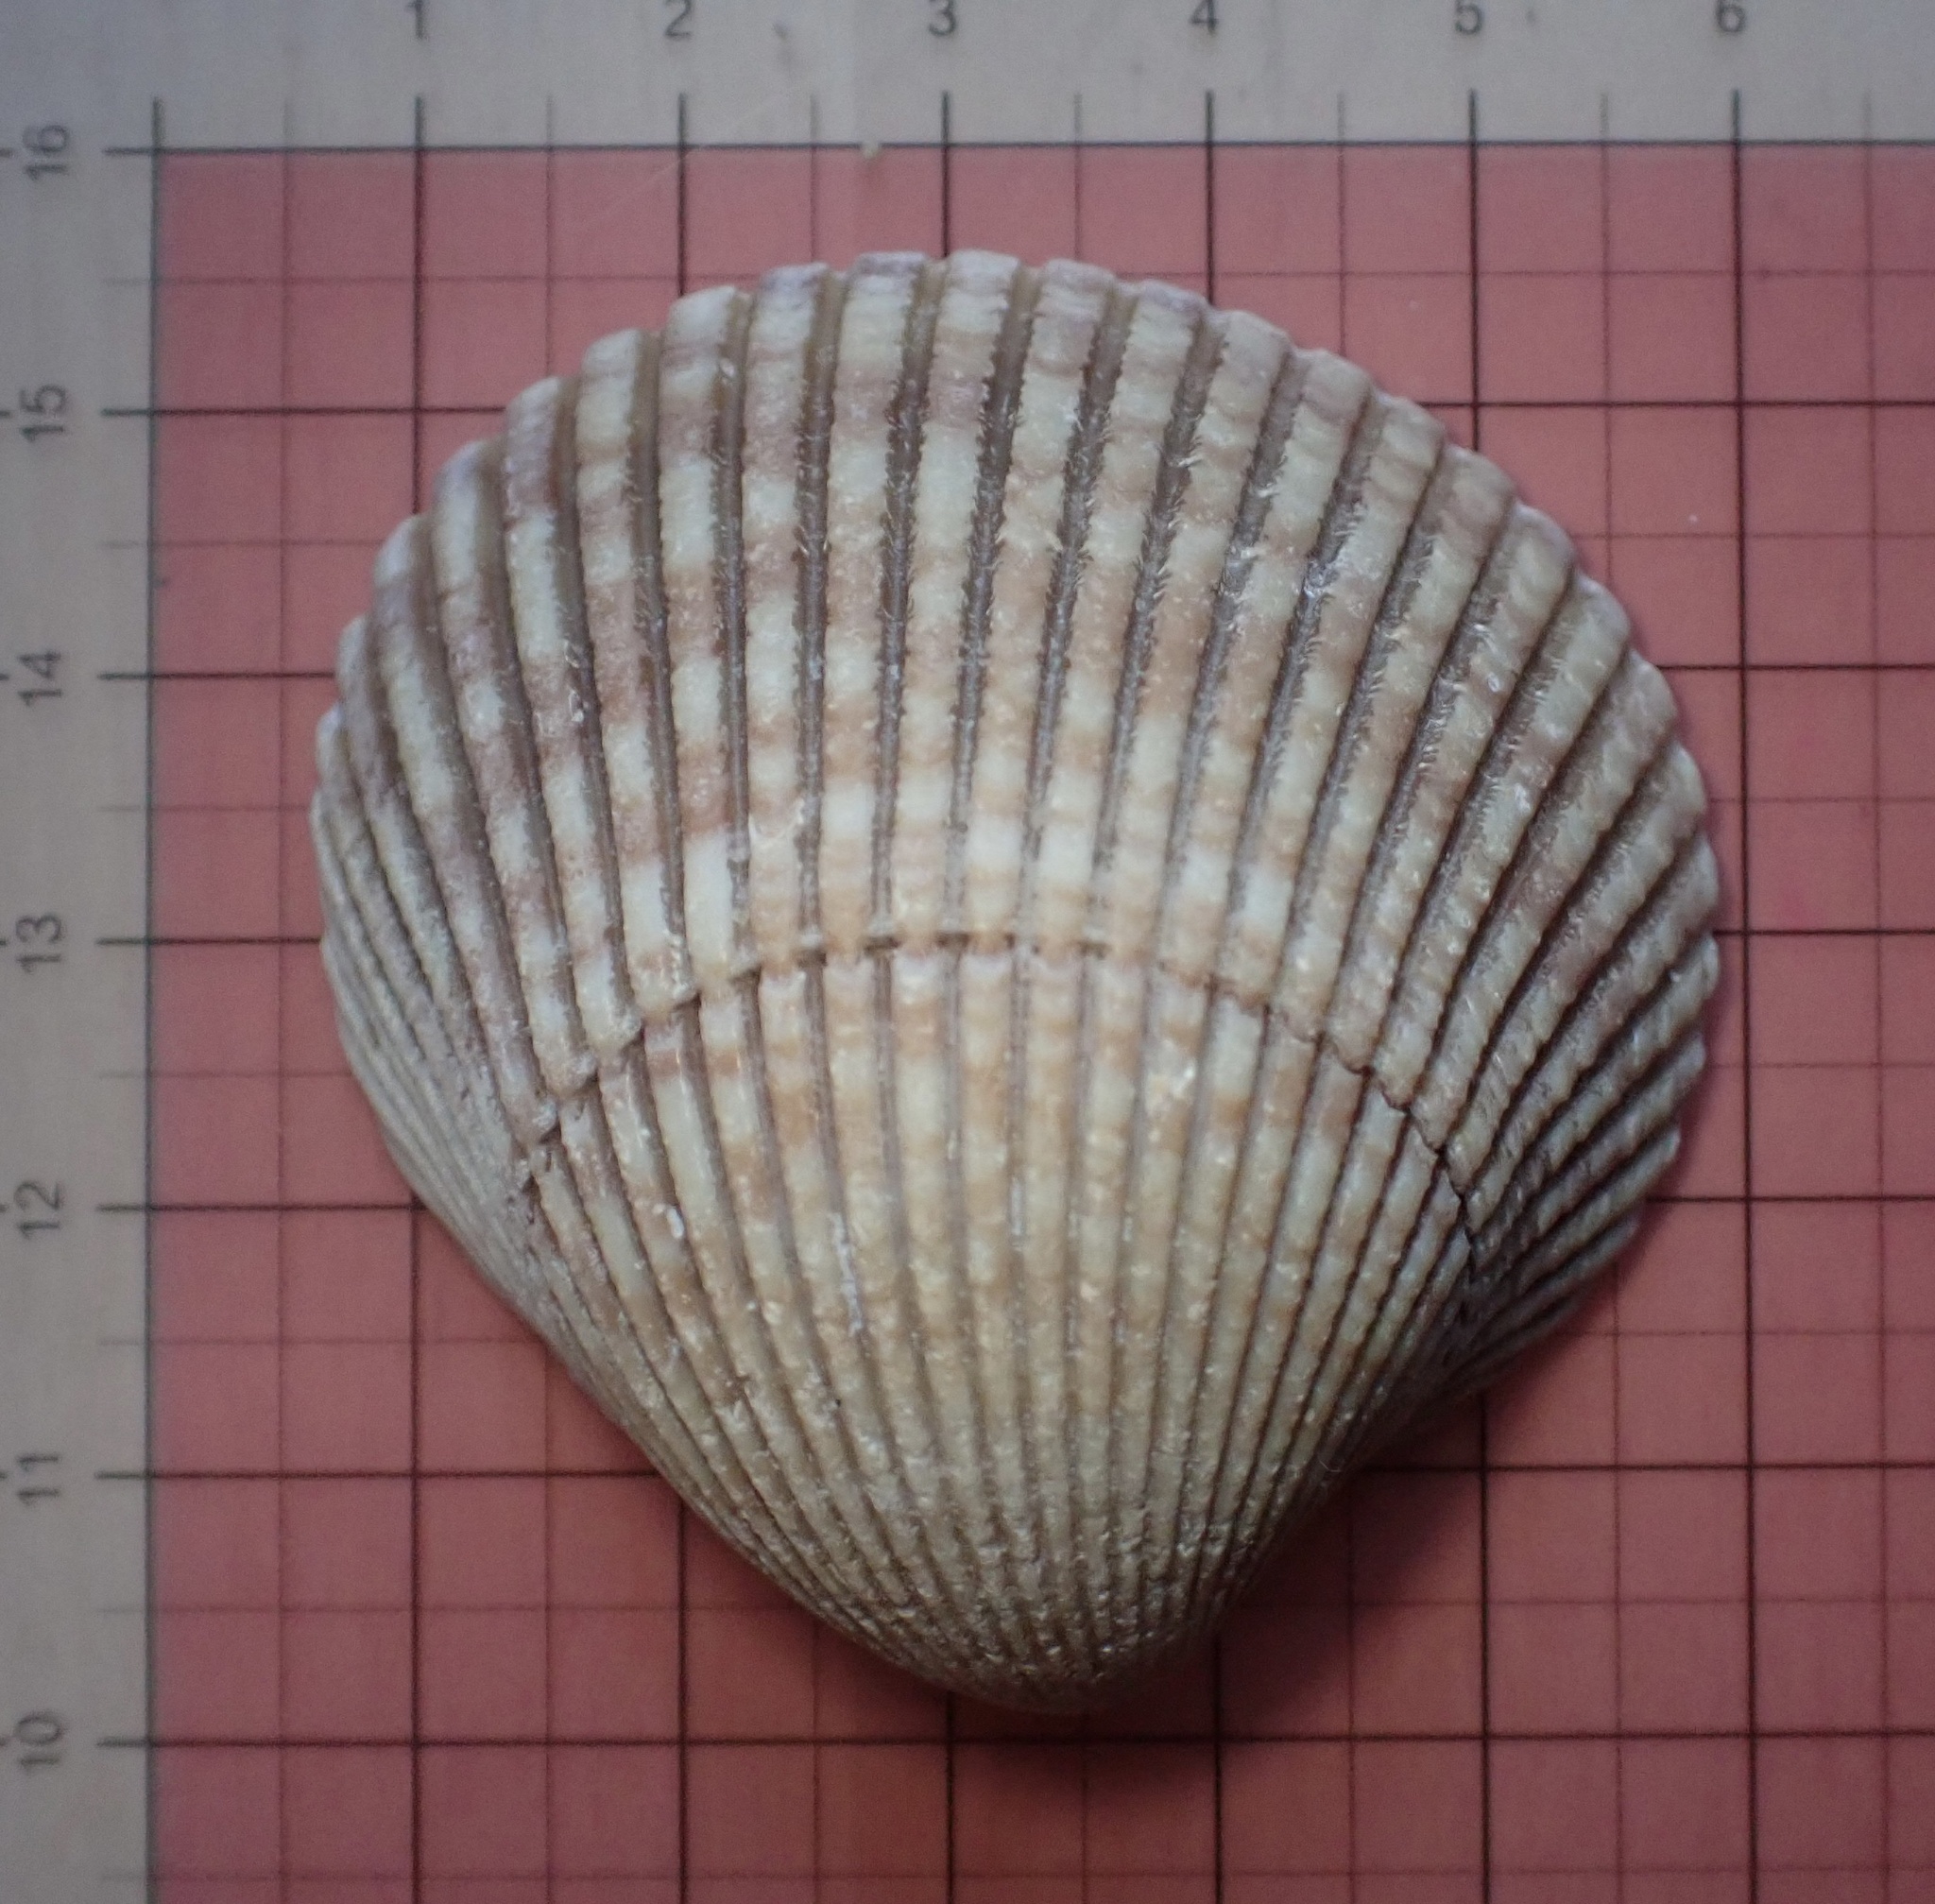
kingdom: Animalia
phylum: Mollusca
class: Bivalvia
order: Cardiida
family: Cardiidae
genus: Clinocardium
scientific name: Clinocardium nuttallii
